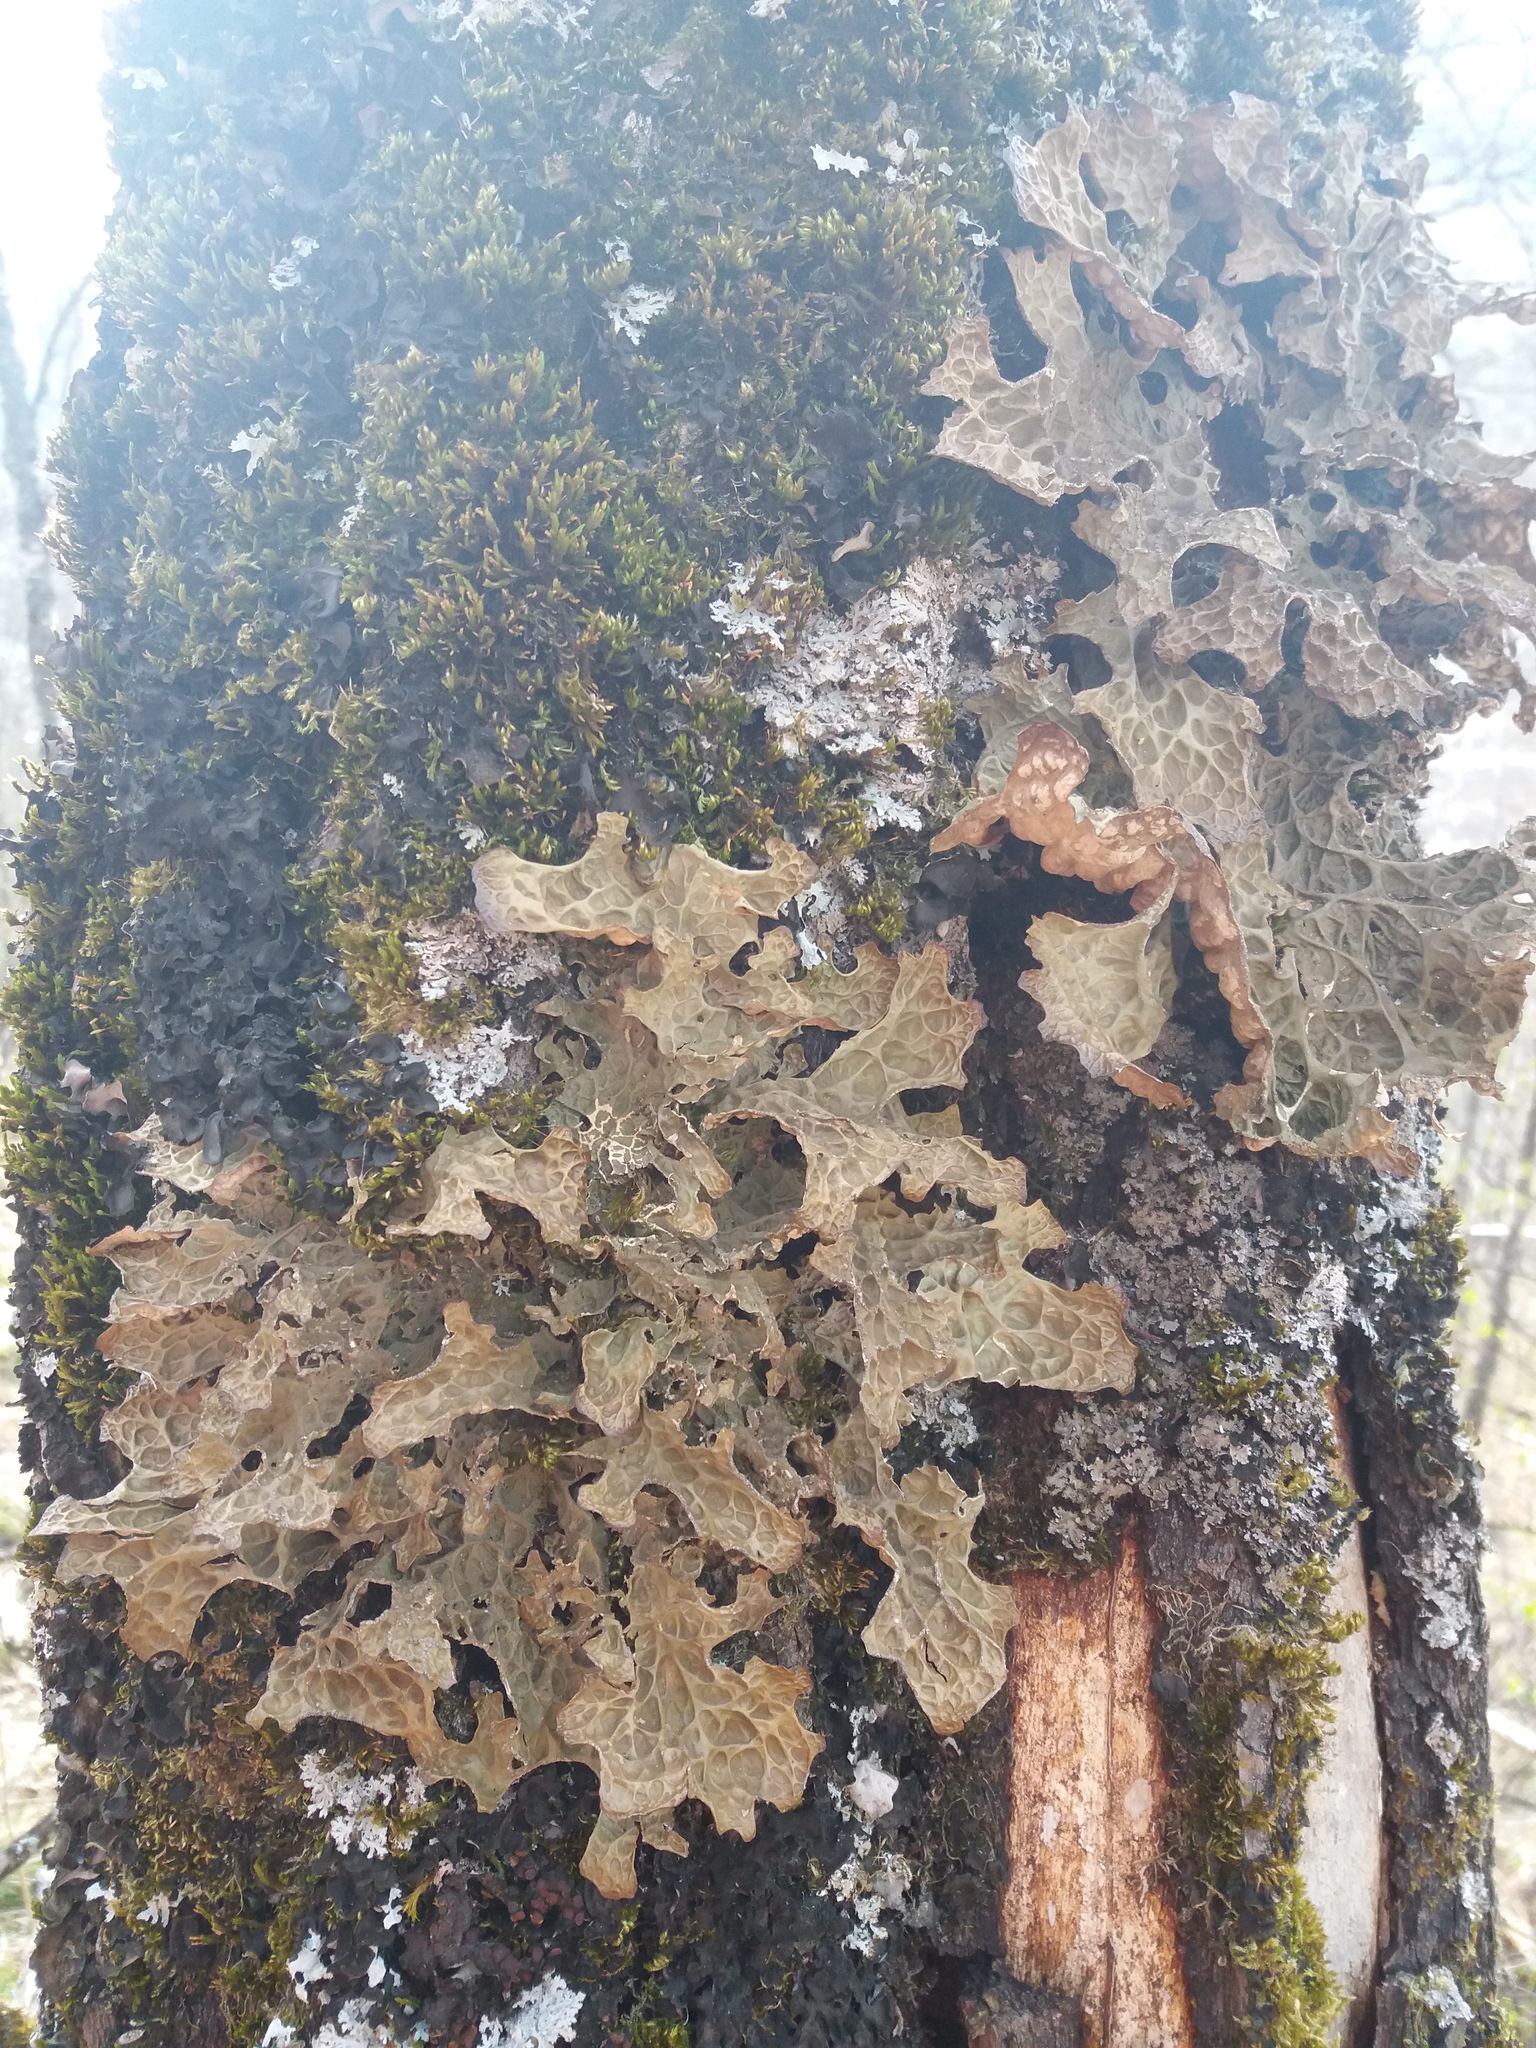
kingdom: Fungi
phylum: Ascomycota
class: Lecanoromycetes
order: Peltigerales
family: Lobariaceae
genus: Lobaria
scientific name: Lobaria pulmonaria
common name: Lungwort
